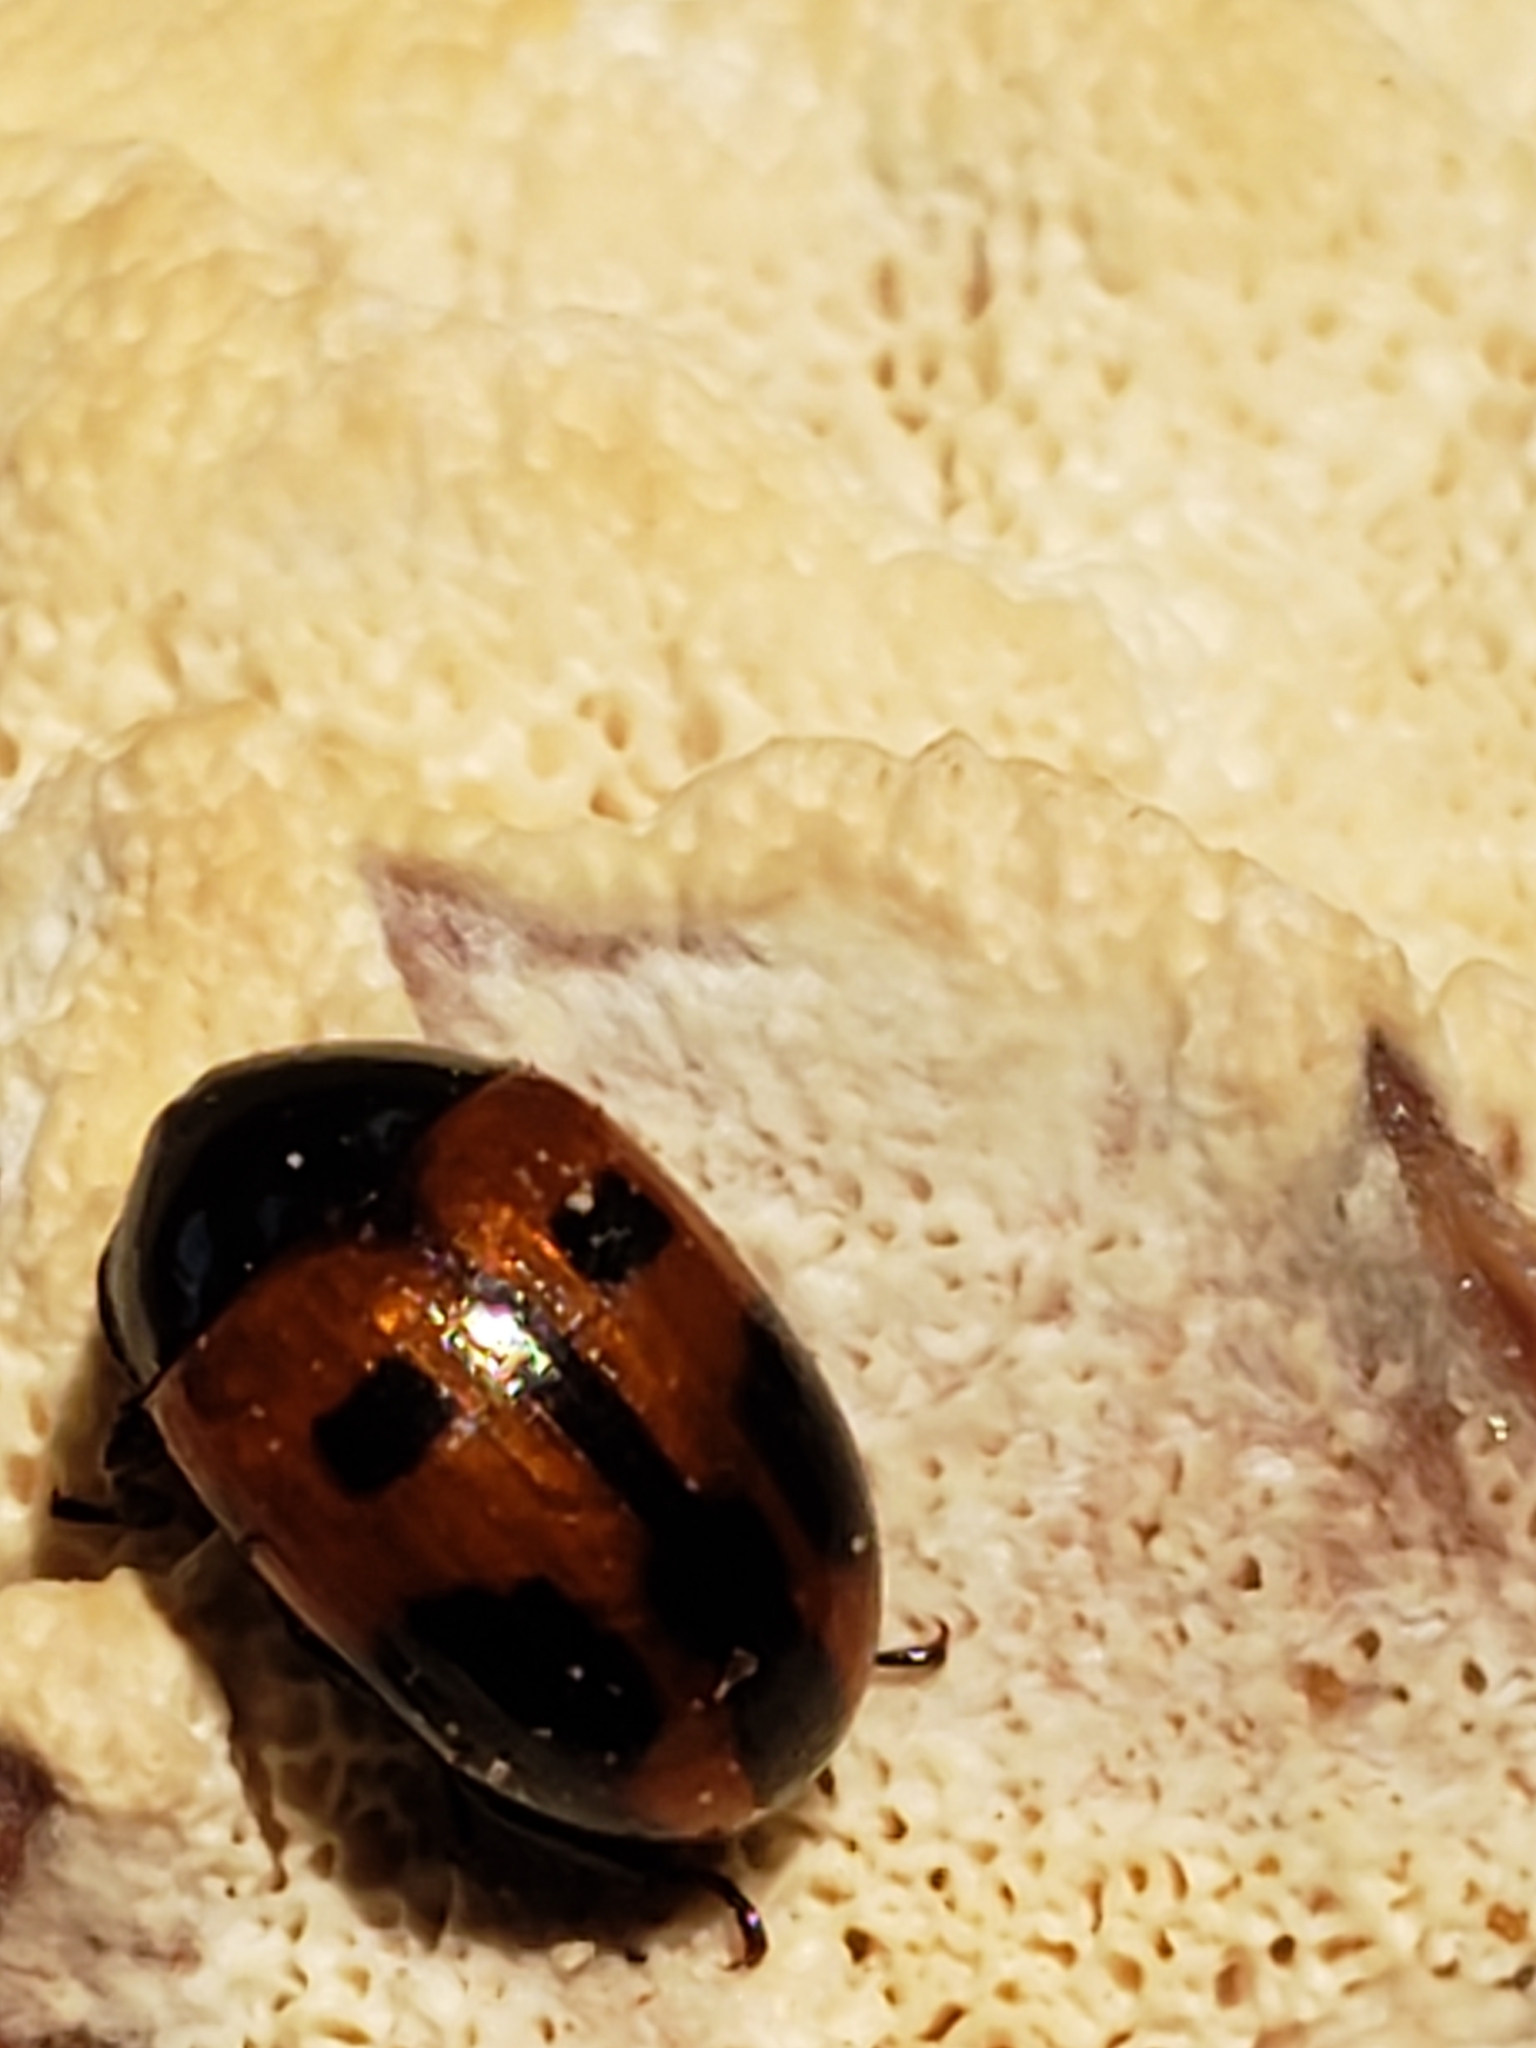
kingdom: Animalia
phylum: Arthropoda
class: Insecta
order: Coleoptera
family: Tenebrionidae
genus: Diaperis
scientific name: Diaperis maculata
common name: Darkling beetle
